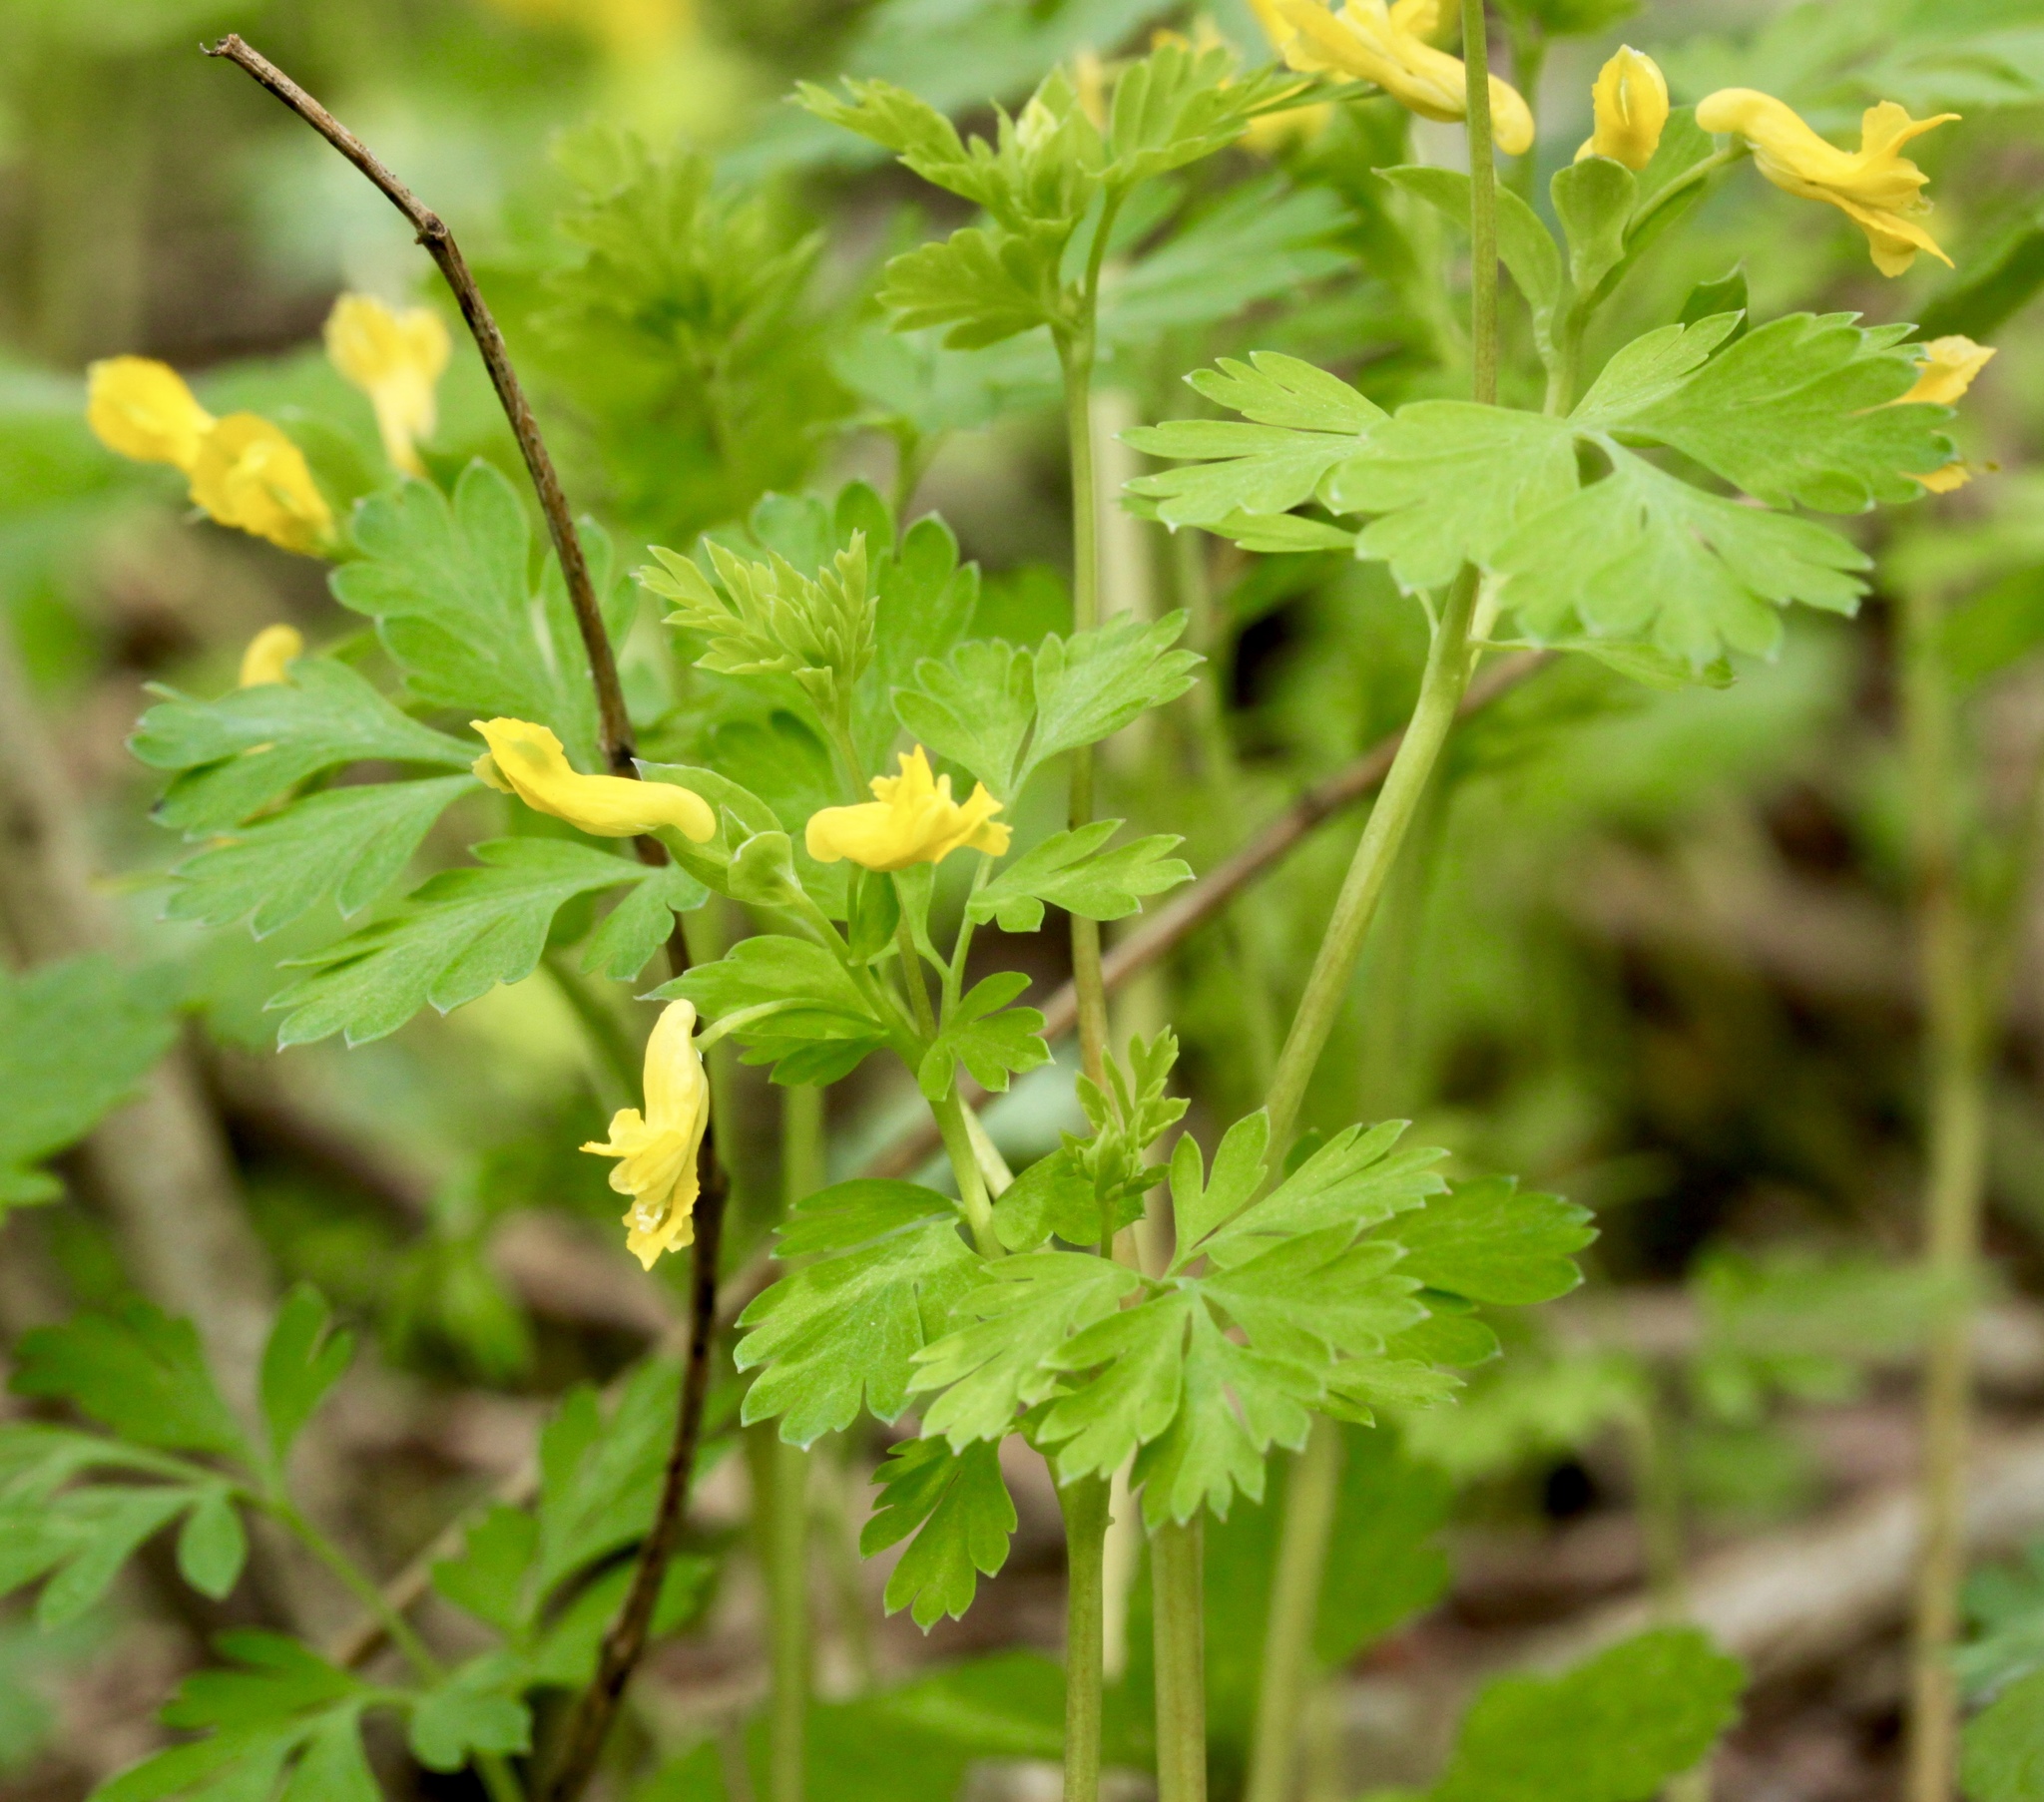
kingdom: Plantae
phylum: Tracheophyta
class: Magnoliopsida
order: Ranunculales
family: Papaveraceae
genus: Corydalis
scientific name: Corydalis flavula
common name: Yellow corydalis
